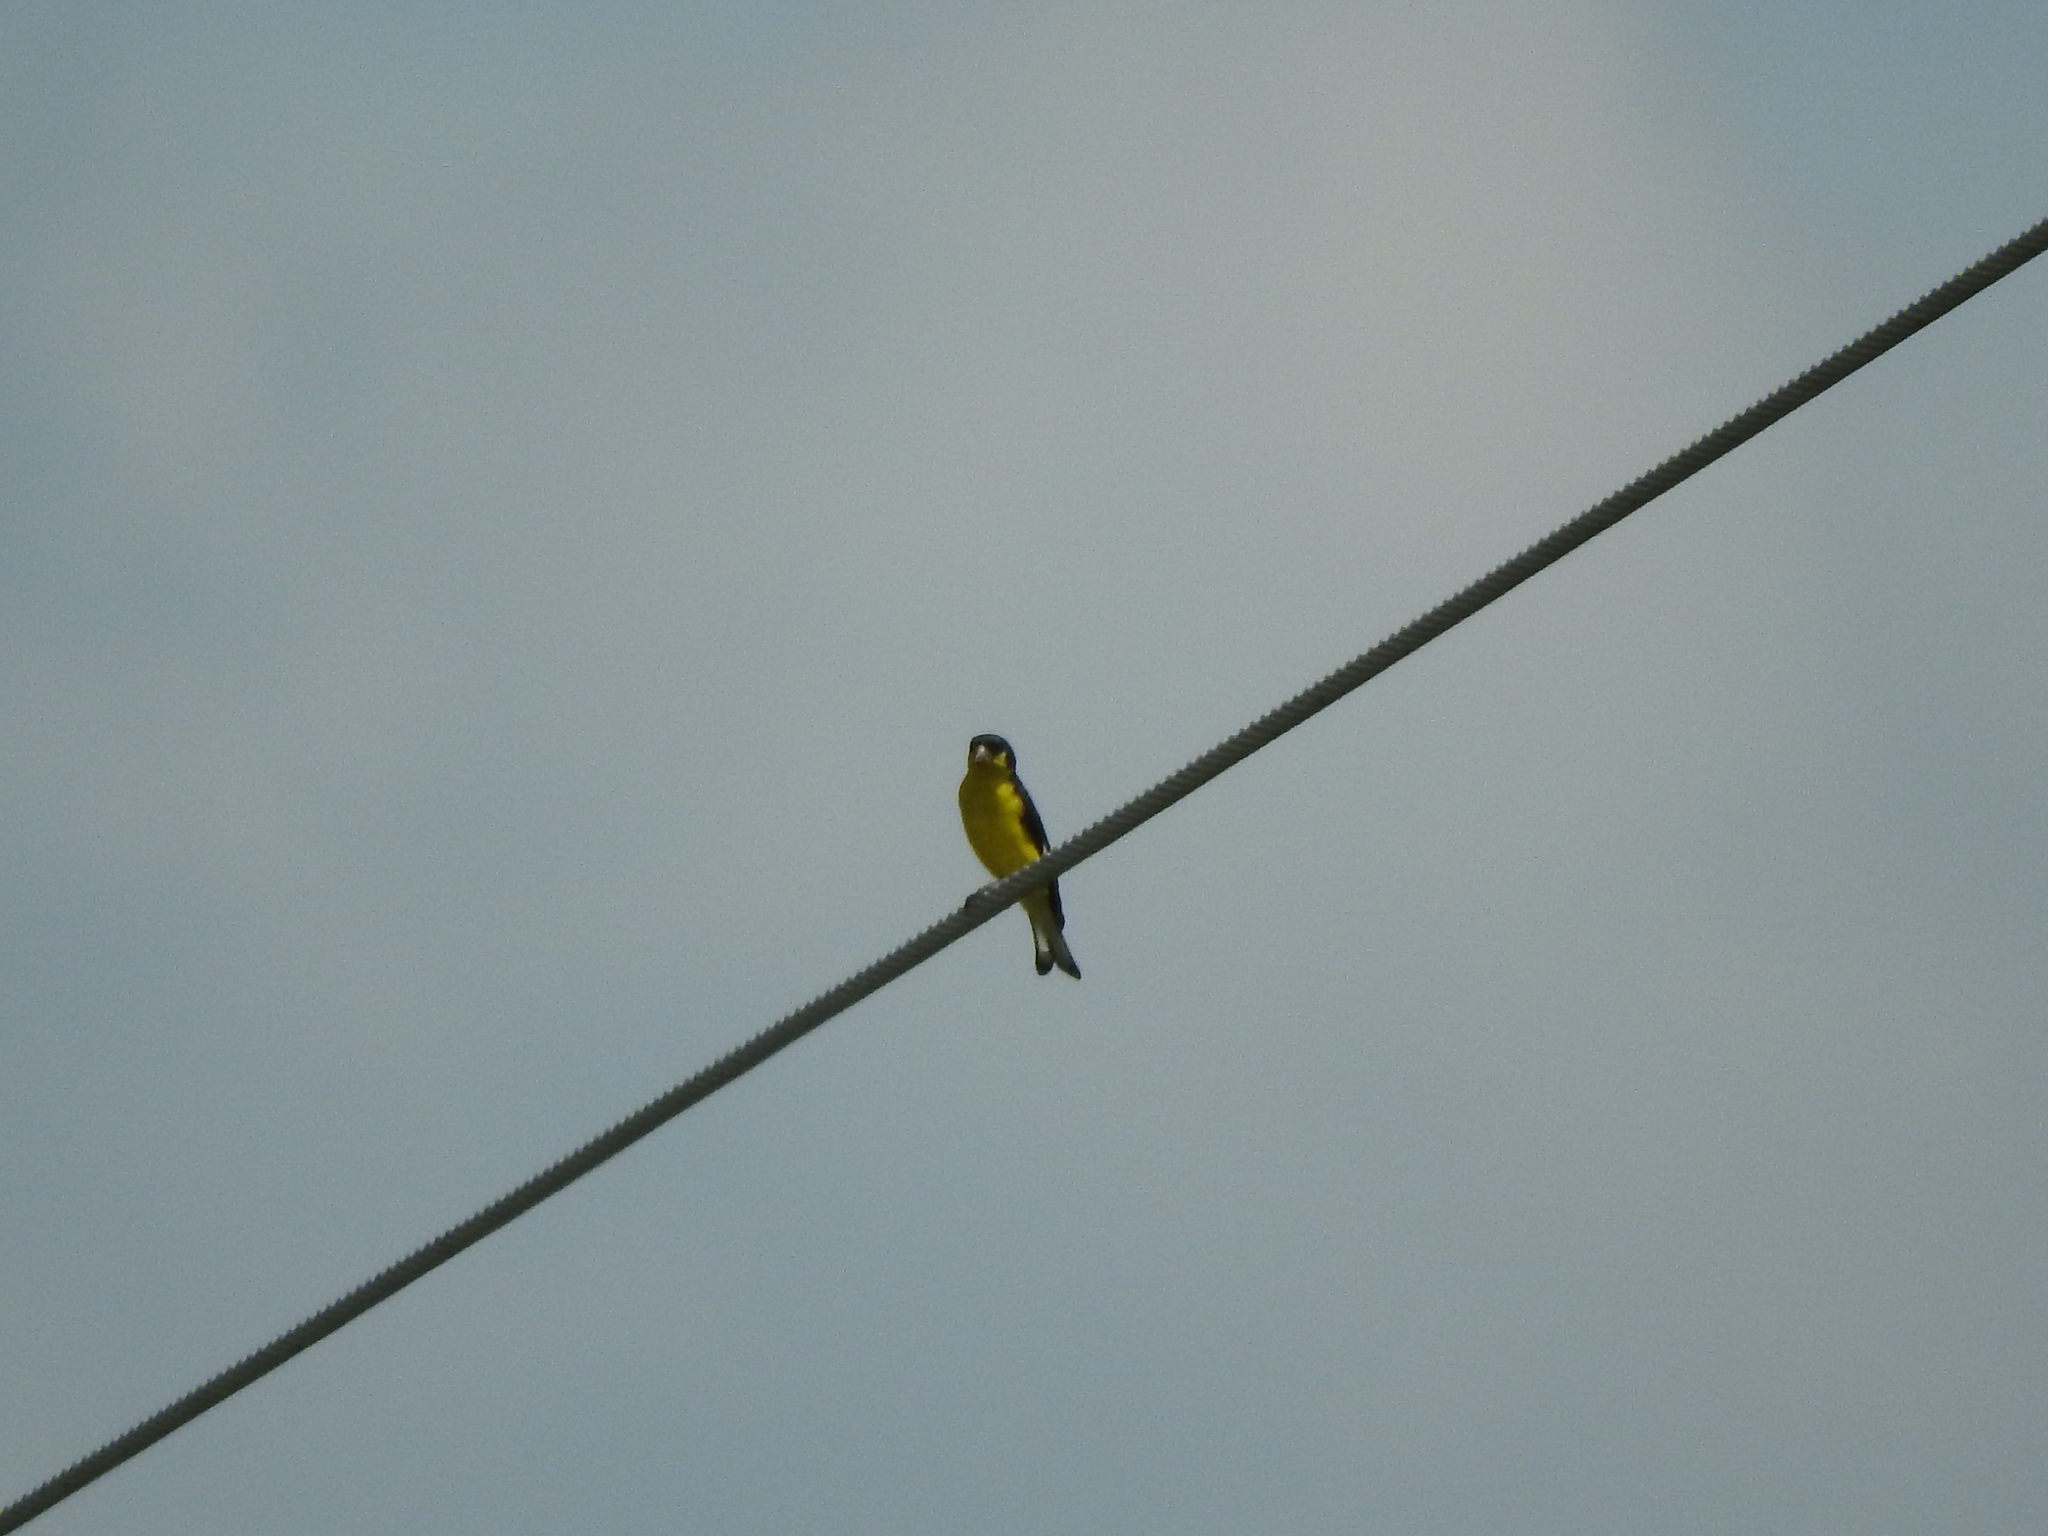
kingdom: Animalia
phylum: Chordata
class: Aves
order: Passeriformes
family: Fringillidae
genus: Spinus
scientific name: Spinus psaltria
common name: Lesser goldfinch
